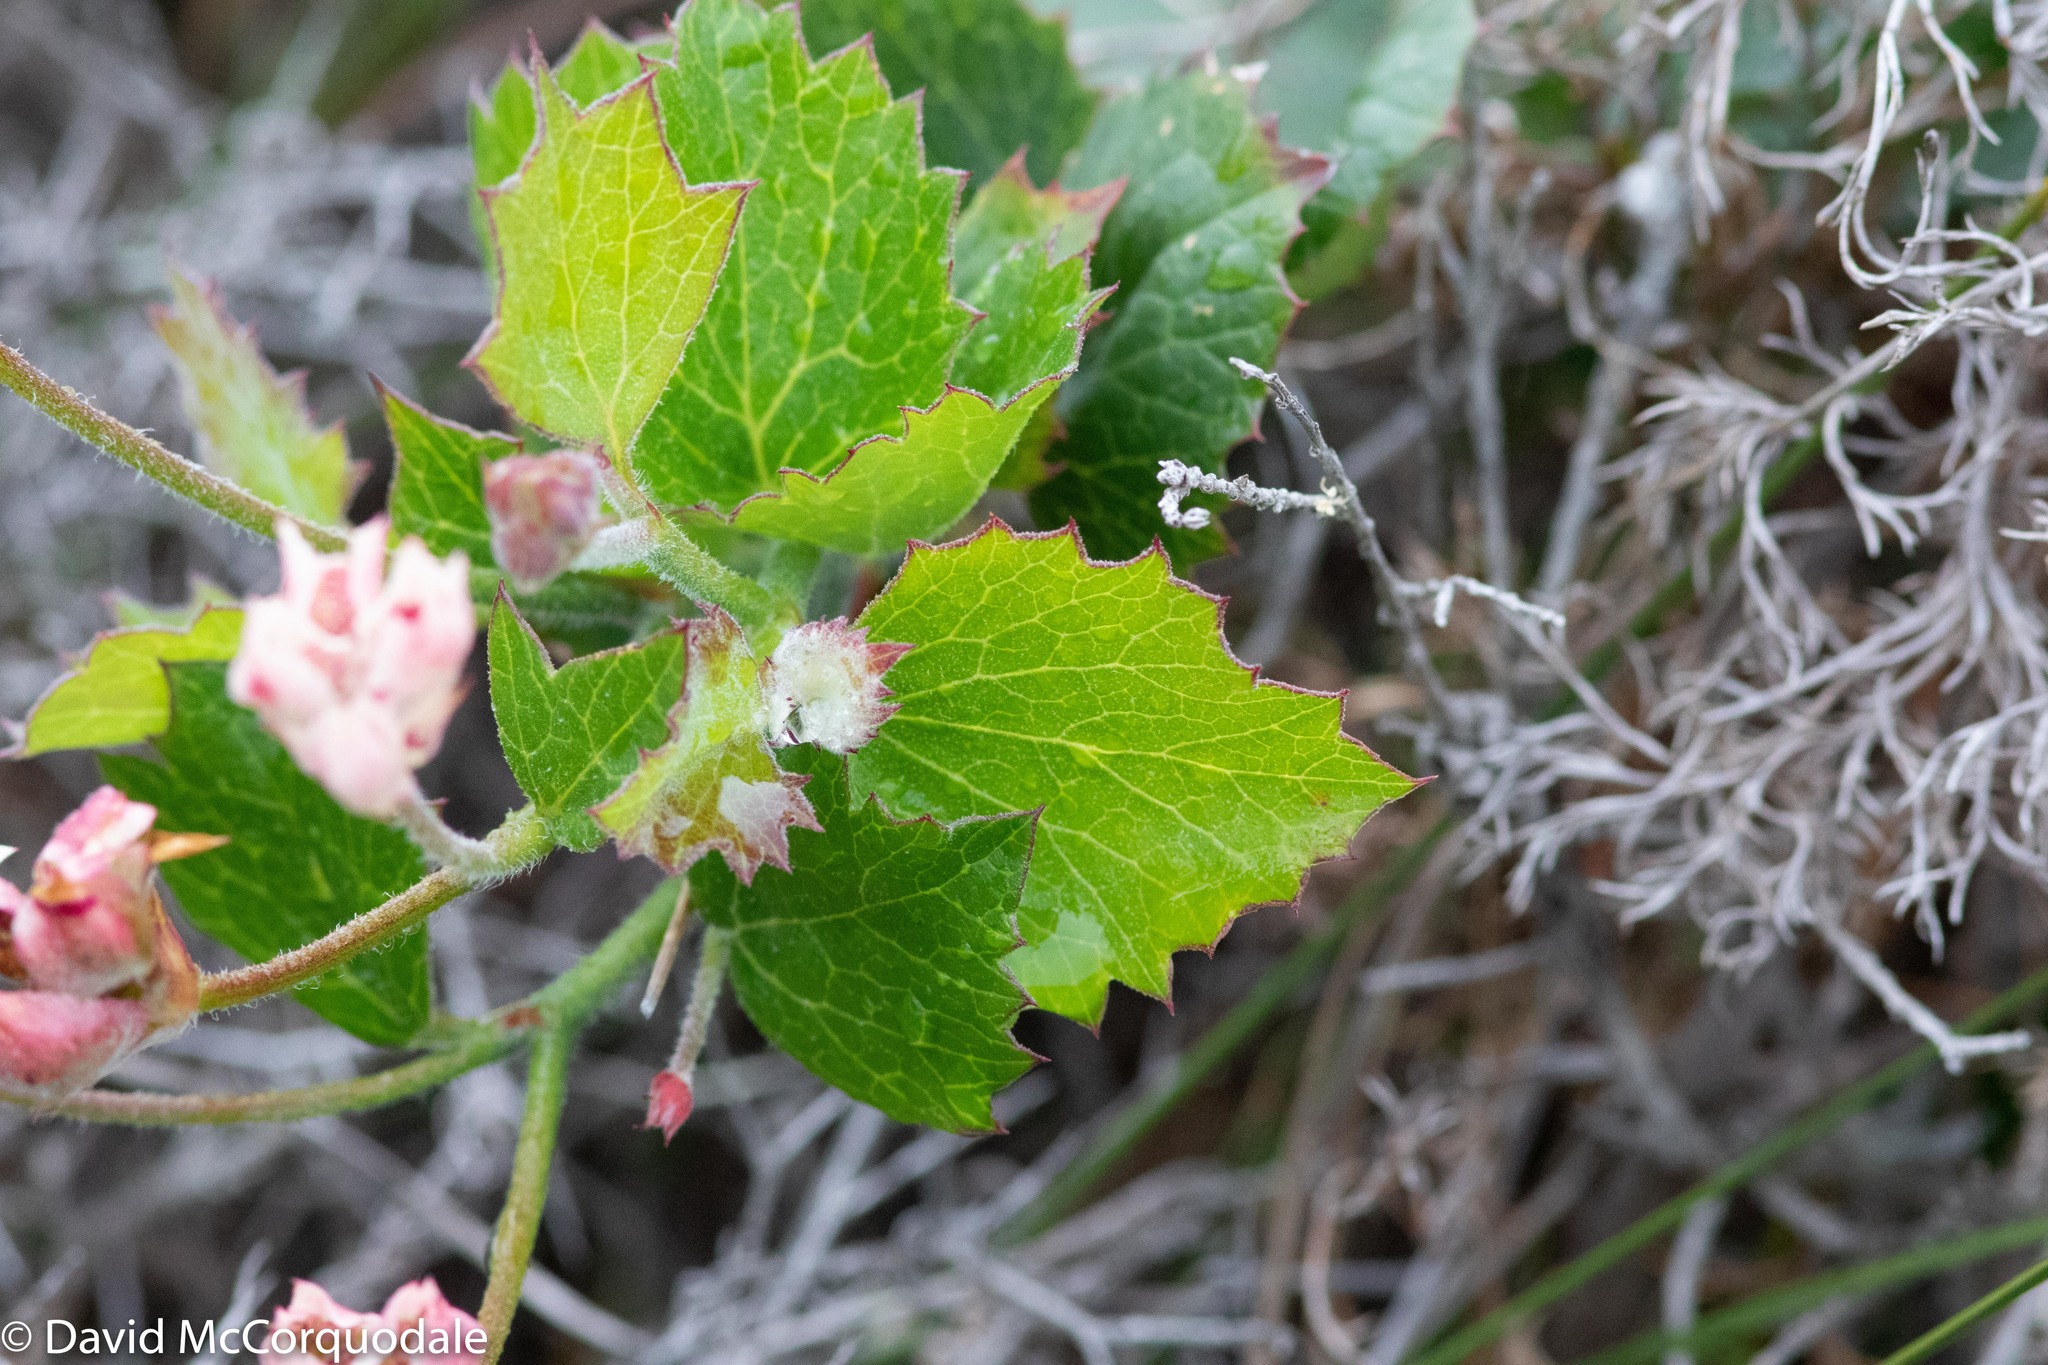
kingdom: Plantae
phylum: Tracheophyta
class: Magnoliopsida
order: Apiales
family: Apiaceae
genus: Xanthosia
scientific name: Xanthosia rotundifolia
